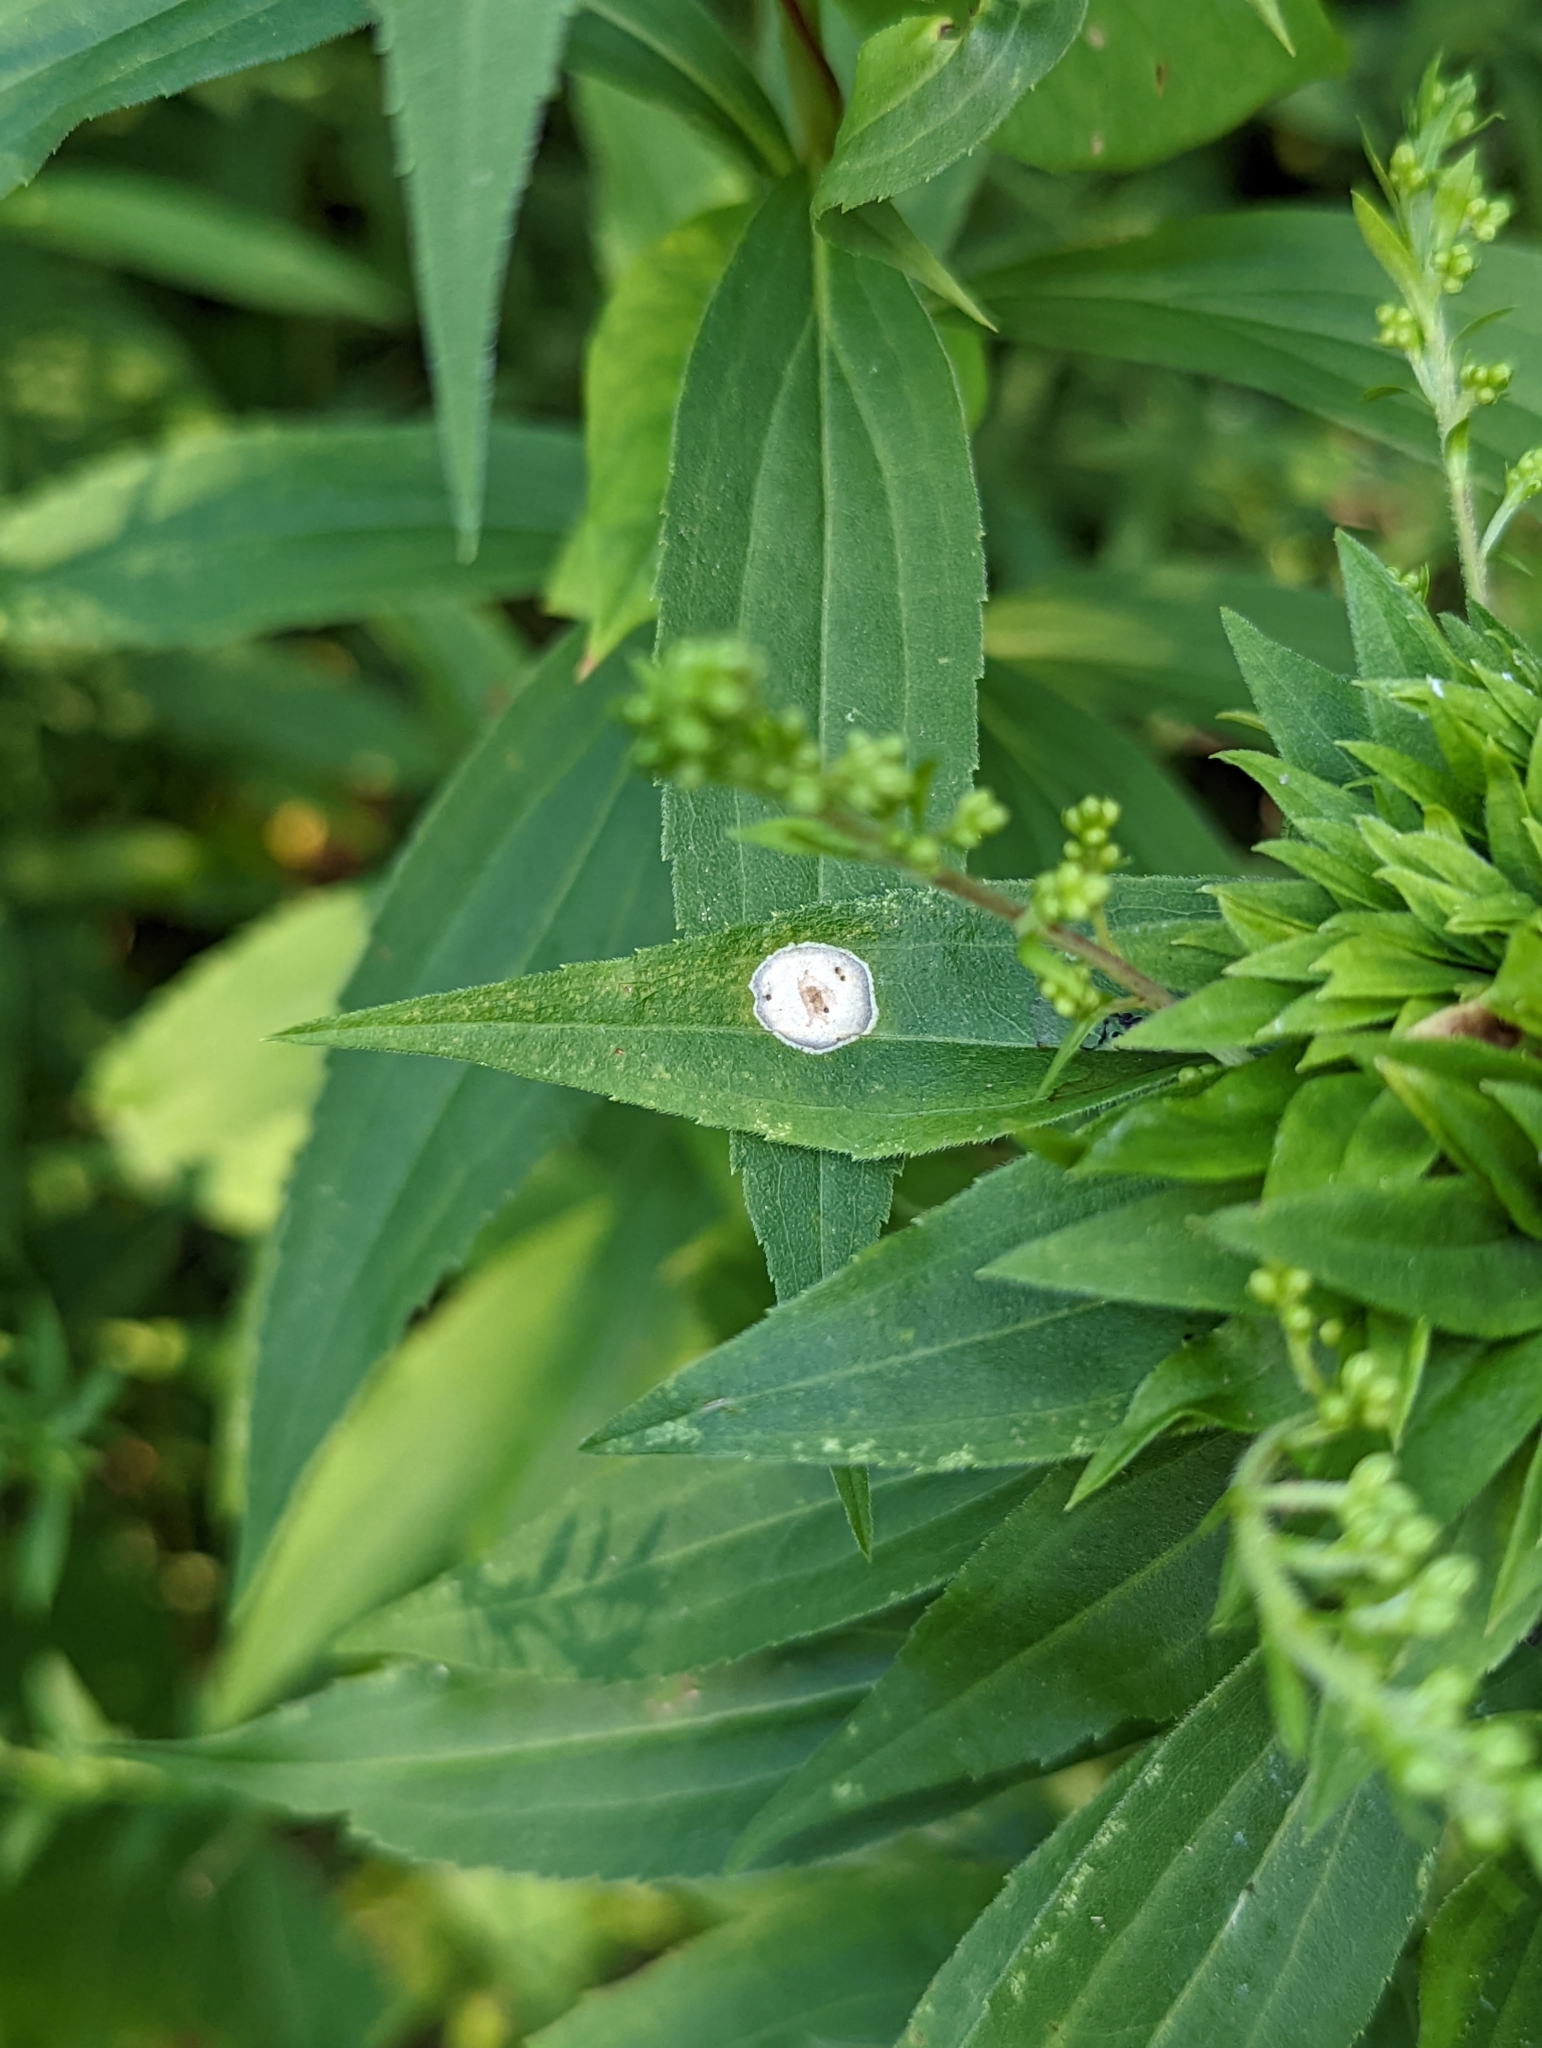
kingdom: Animalia
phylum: Arthropoda
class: Insecta
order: Diptera
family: Cecidomyiidae
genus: Asteromyia
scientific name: Asteromyia carbonifera
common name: Carbonifera goldenrod gall midge
